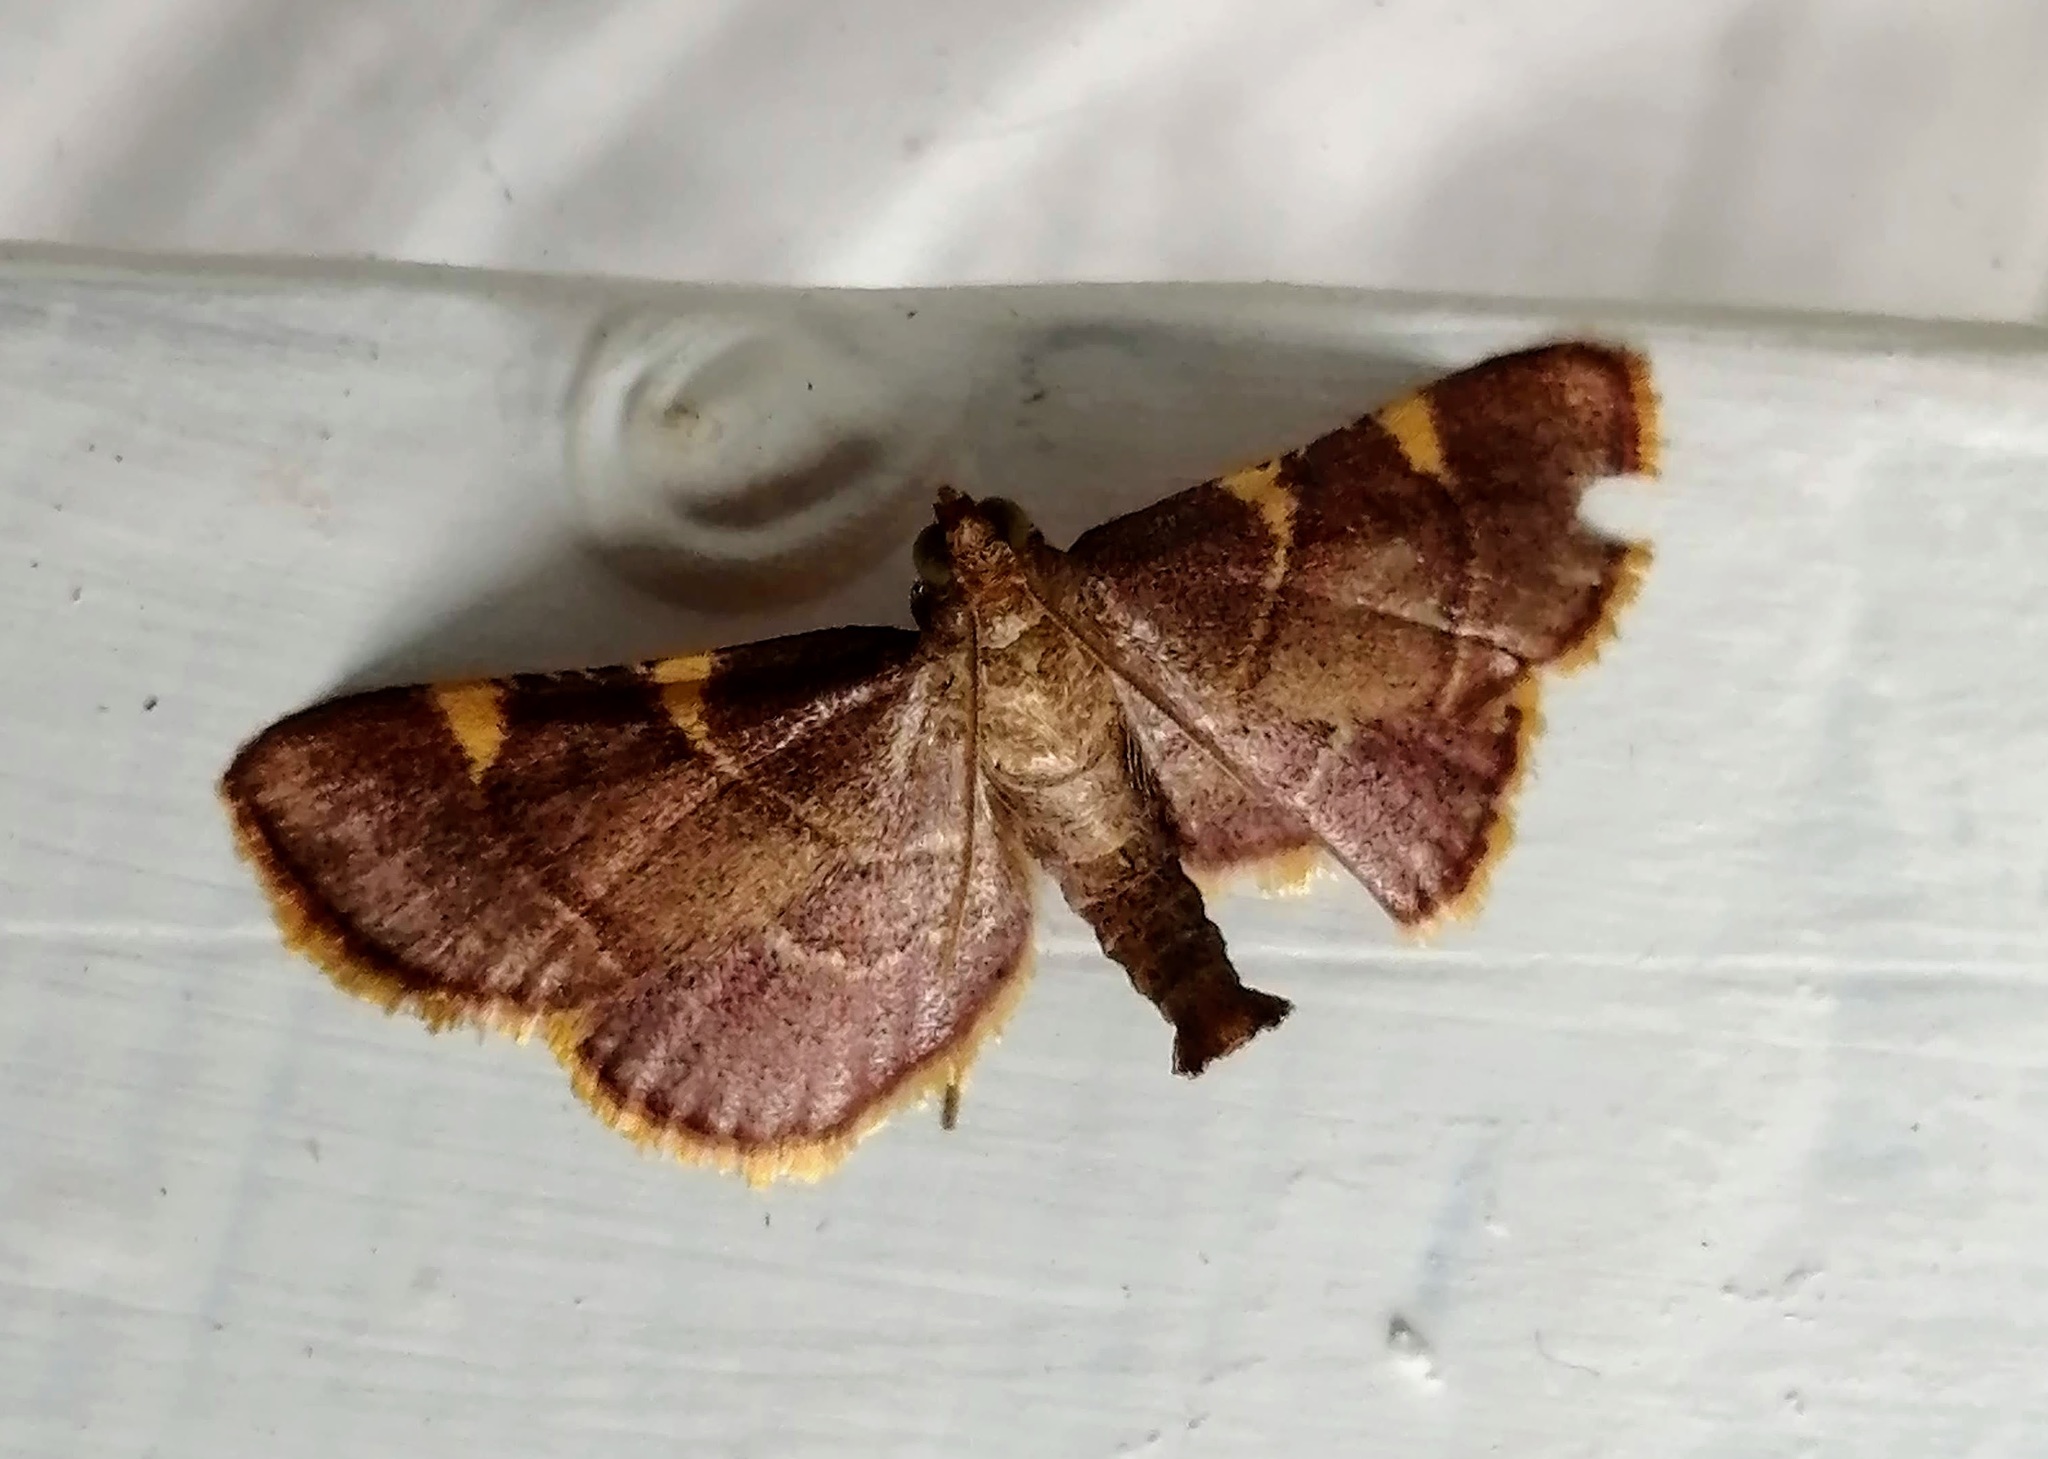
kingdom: Animalia
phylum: Arthropoda
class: Insecta
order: Lepidoptera
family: Pyralidae
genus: Hypsopygia
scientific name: Hypsopygia olinalis
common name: Yellow-fringed dolichomia moth
